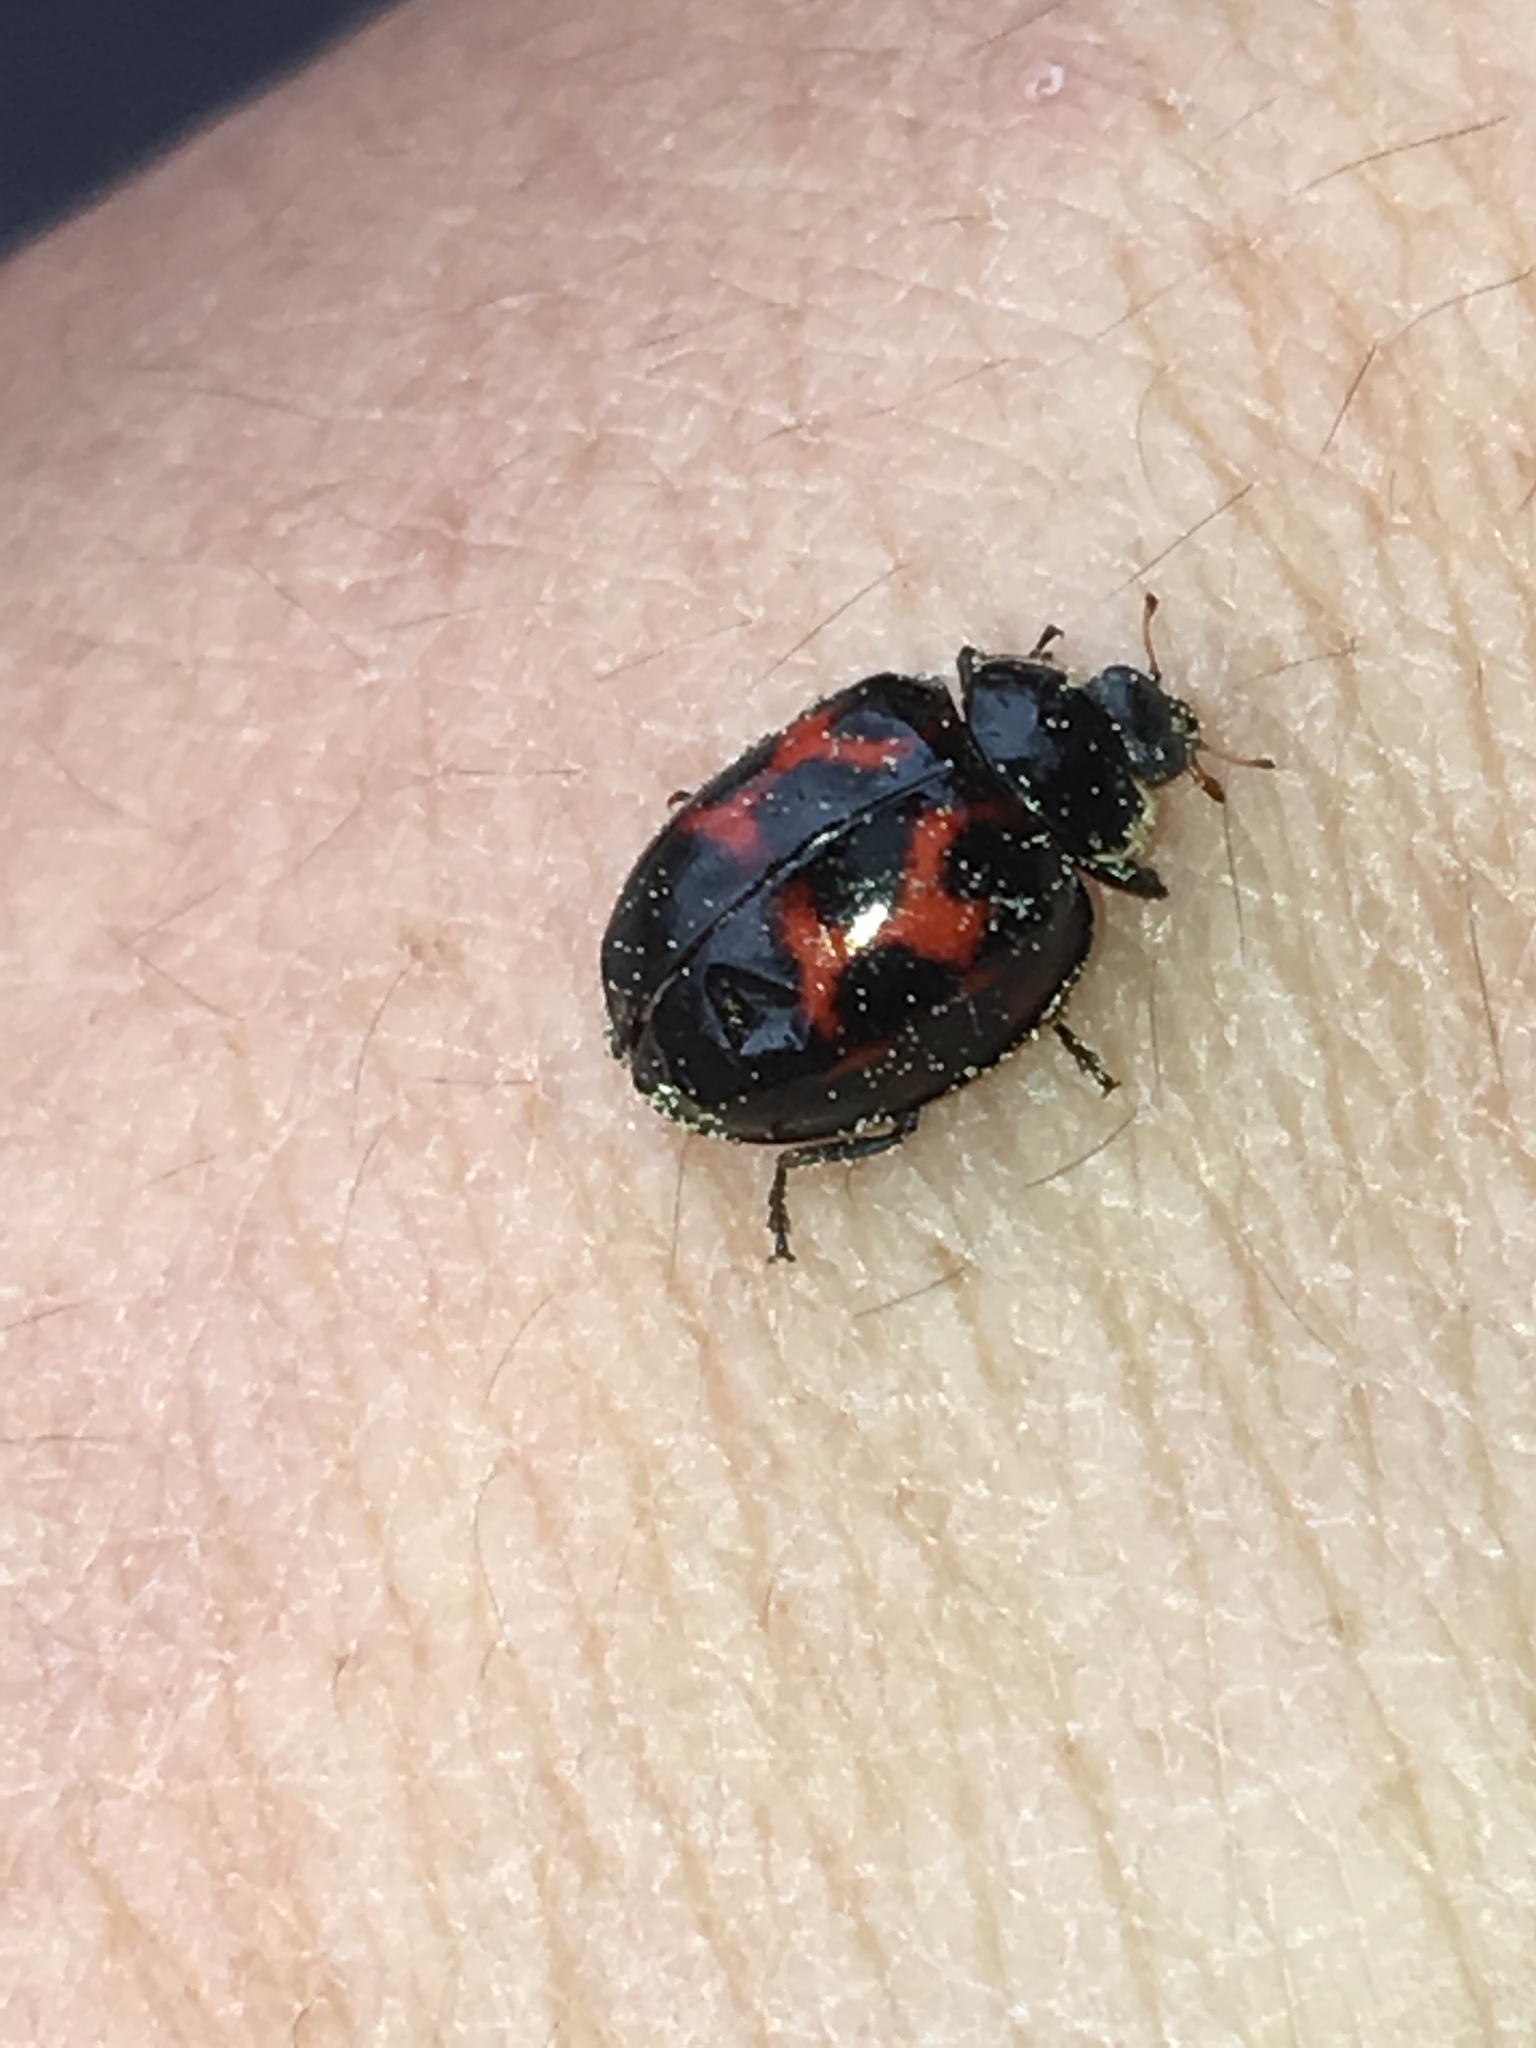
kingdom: Animalia
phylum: Arthropoda
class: Insecta
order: Coleoptera
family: Coccinellidae
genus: Harmonia
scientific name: Harmonia axyridis
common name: Harlequin ladybird
